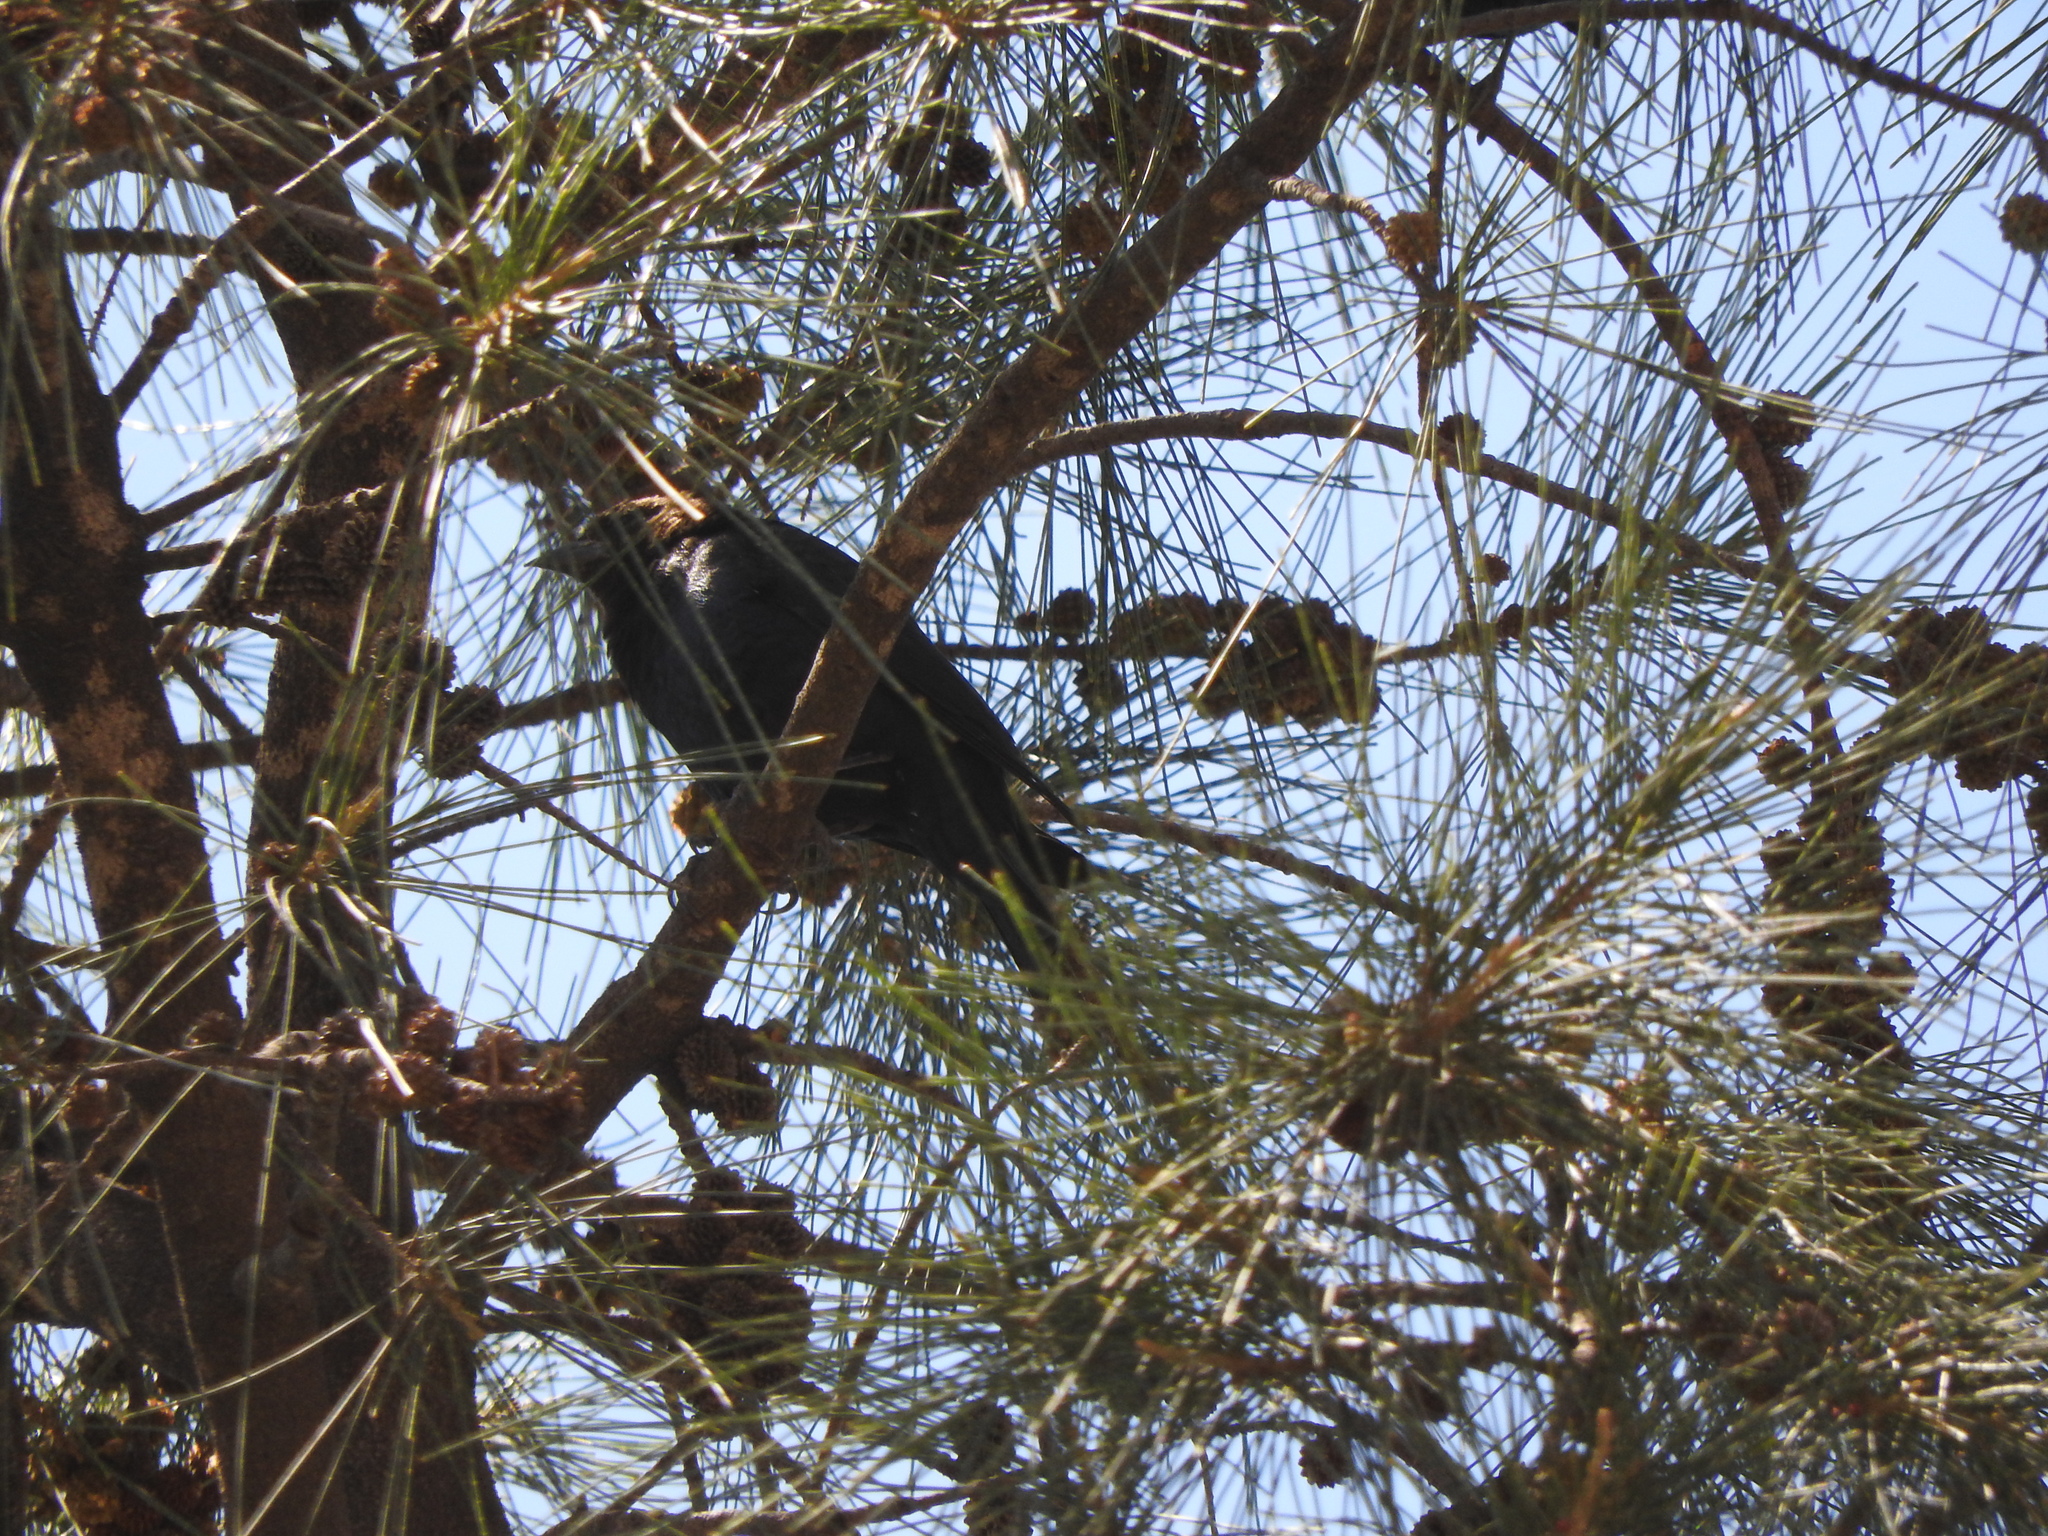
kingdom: Animalia
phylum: Chordata
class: Aves
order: Passeriformes
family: Icteridae
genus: Molothrus
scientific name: Molothrus ater
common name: Brown-headed cowbird
